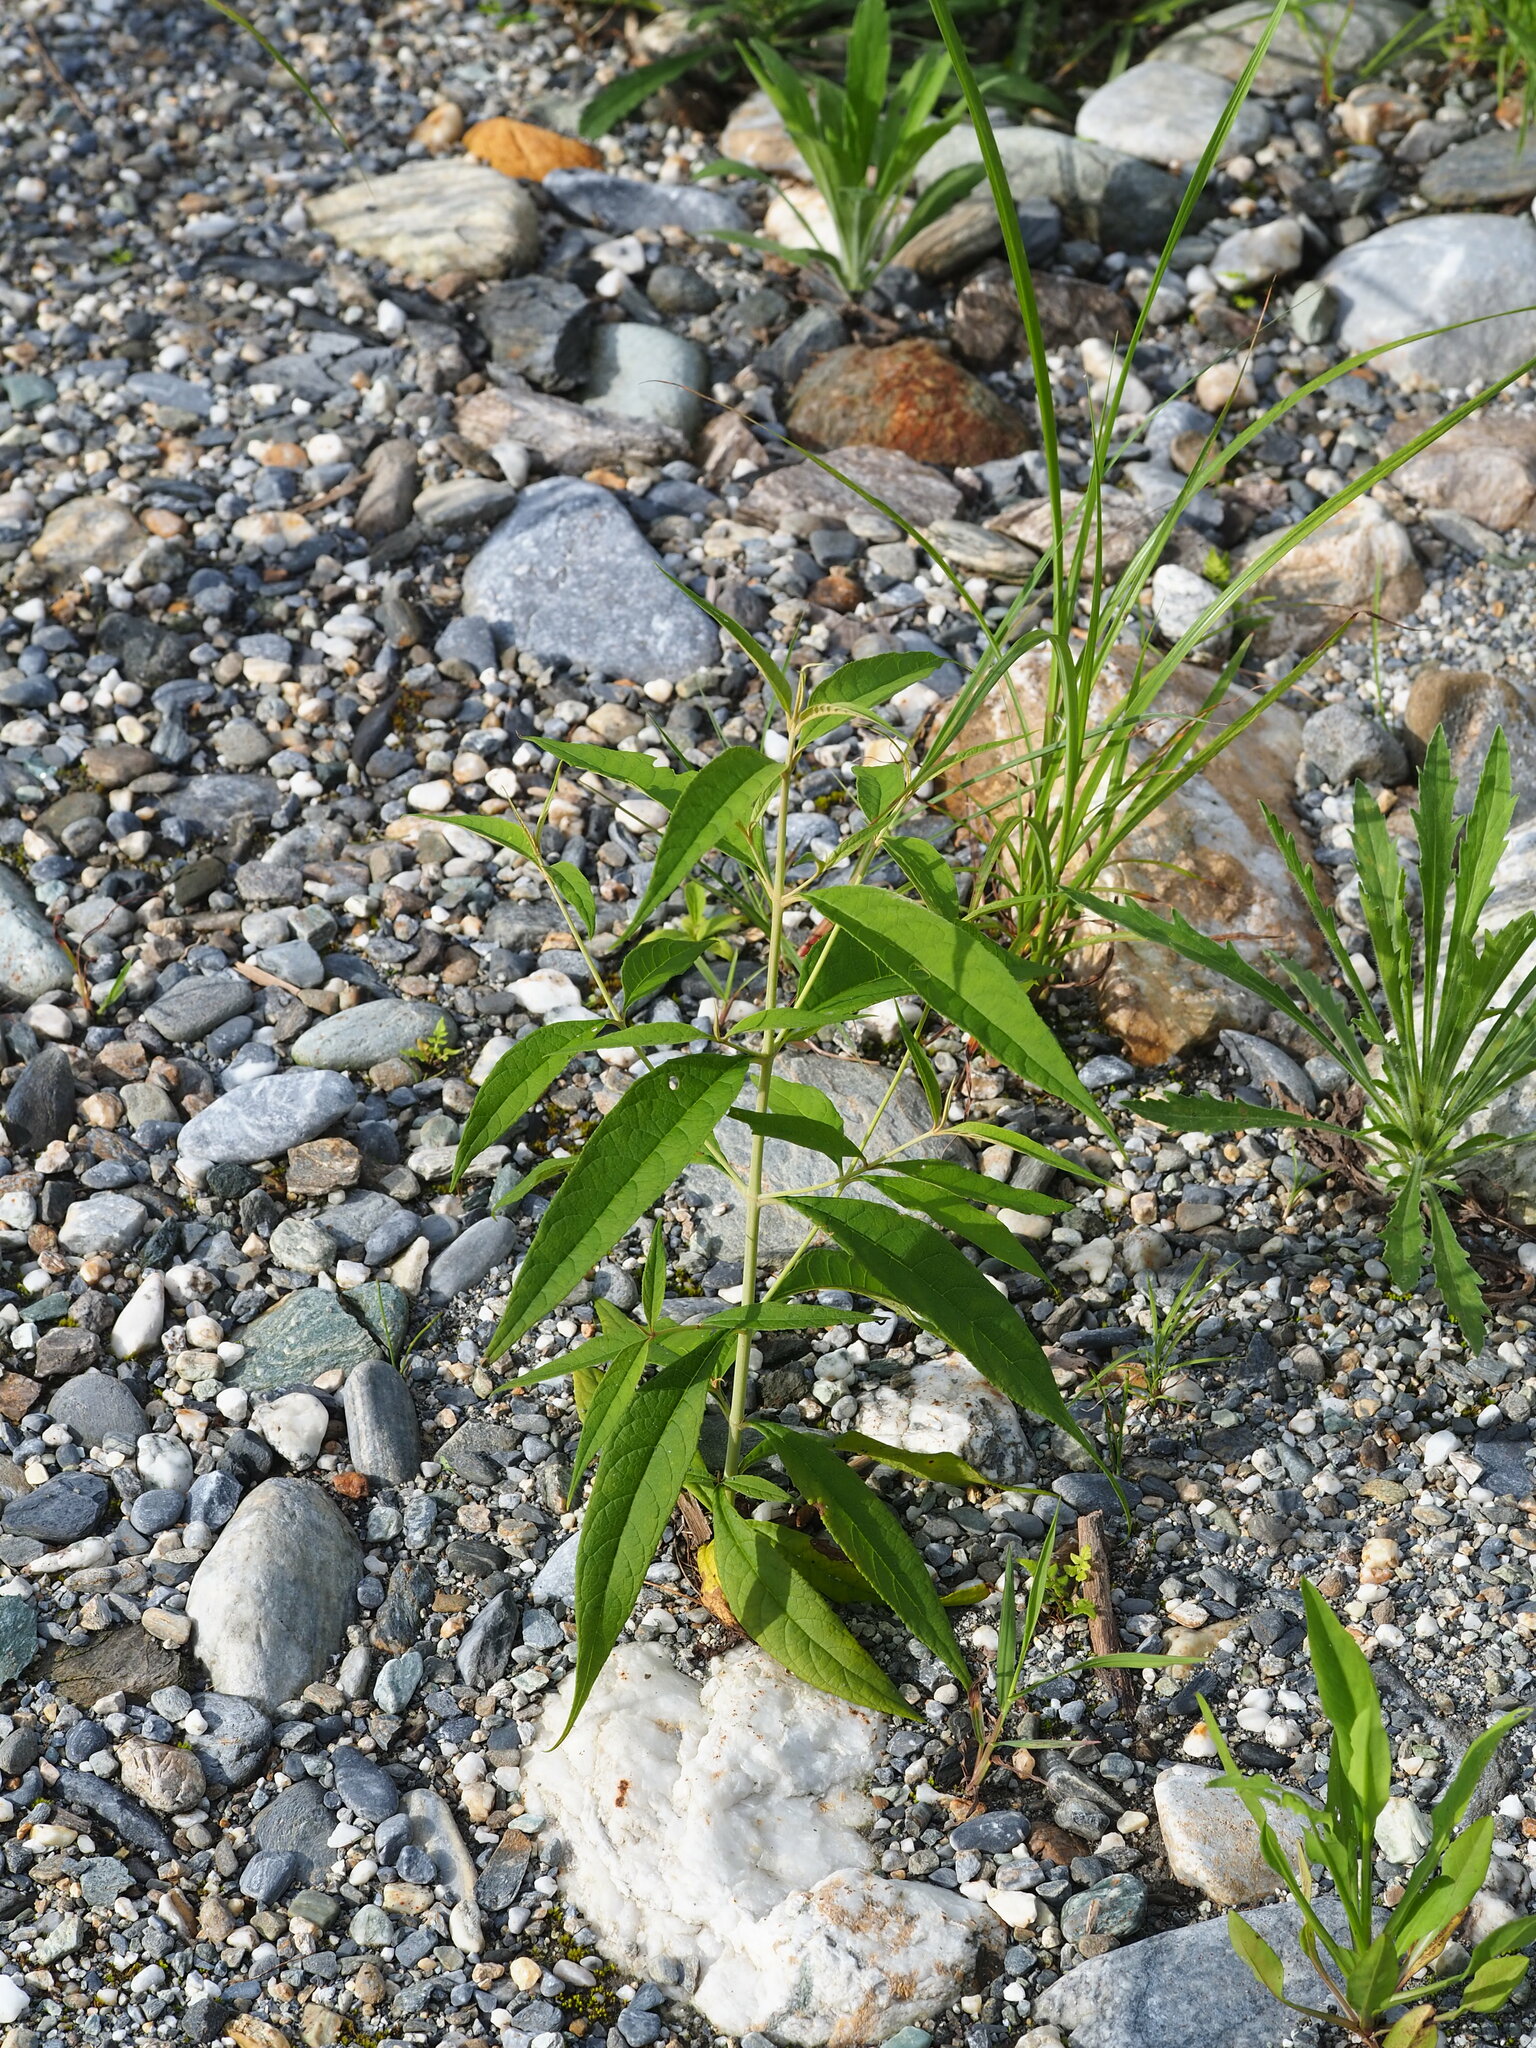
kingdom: Plantae
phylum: Tracheophyta
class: Magnoliopsida
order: Lamiales
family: Scrophulariaceae
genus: Buddleja
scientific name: Buddleja asiatica
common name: Dog tail
